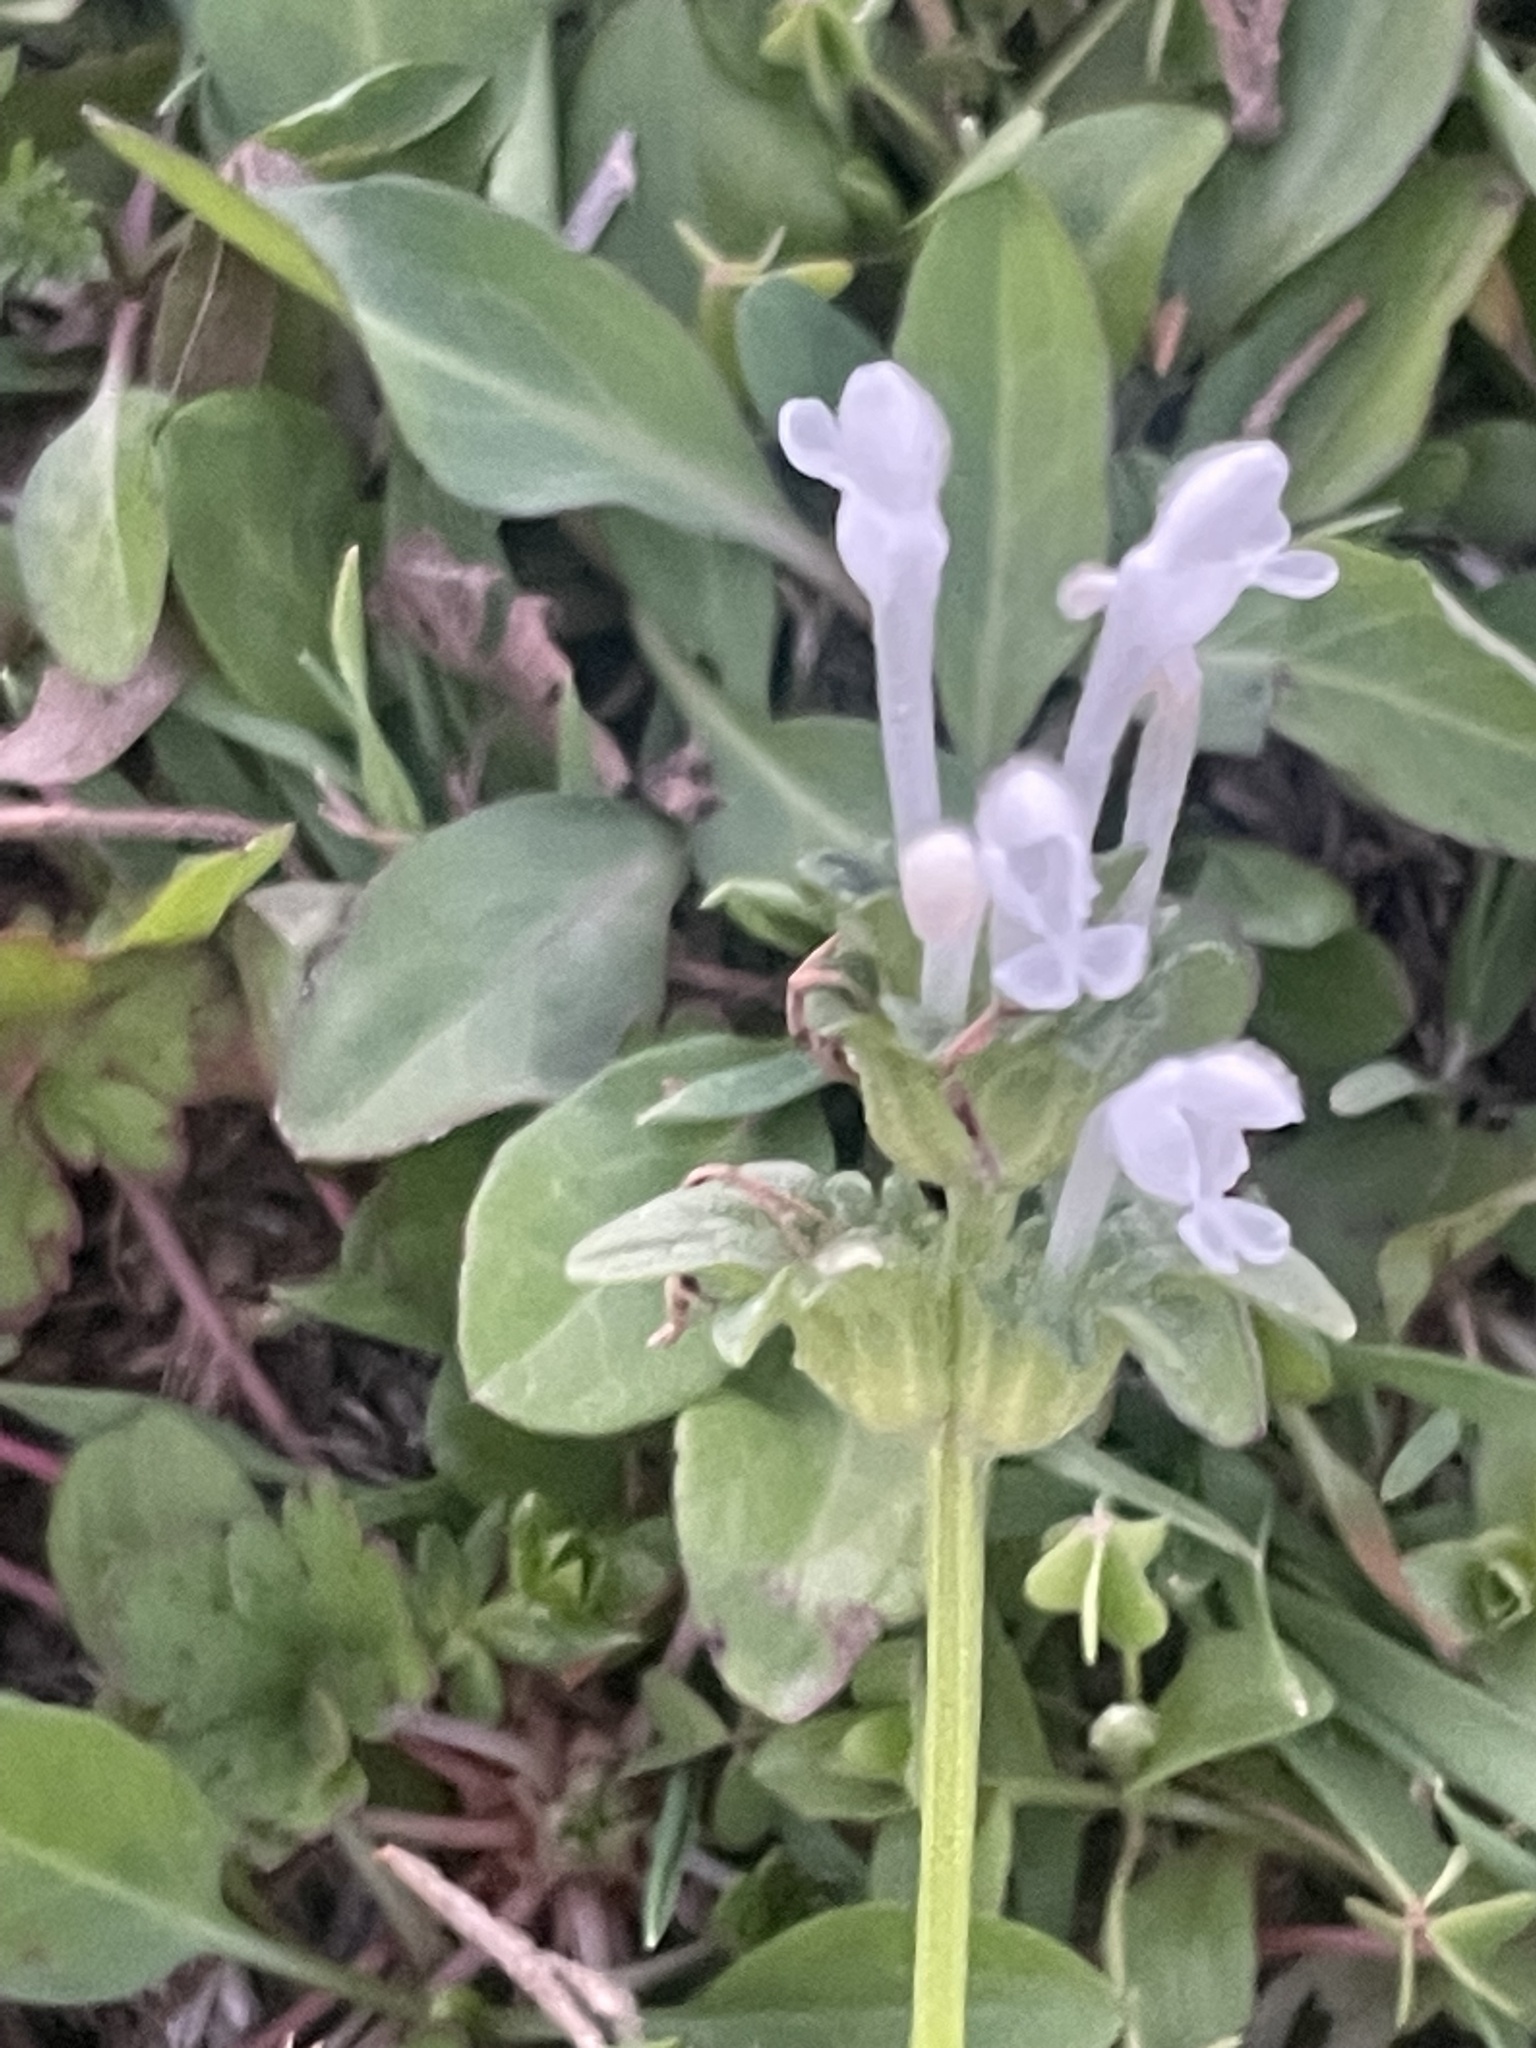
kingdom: Plantae
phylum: Tracheophyta
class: Magnoliopsida
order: Lamiales
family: Lamiaceae
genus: Lamium
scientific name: Lamium amplexicaule
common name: Henbit dead-nettle
